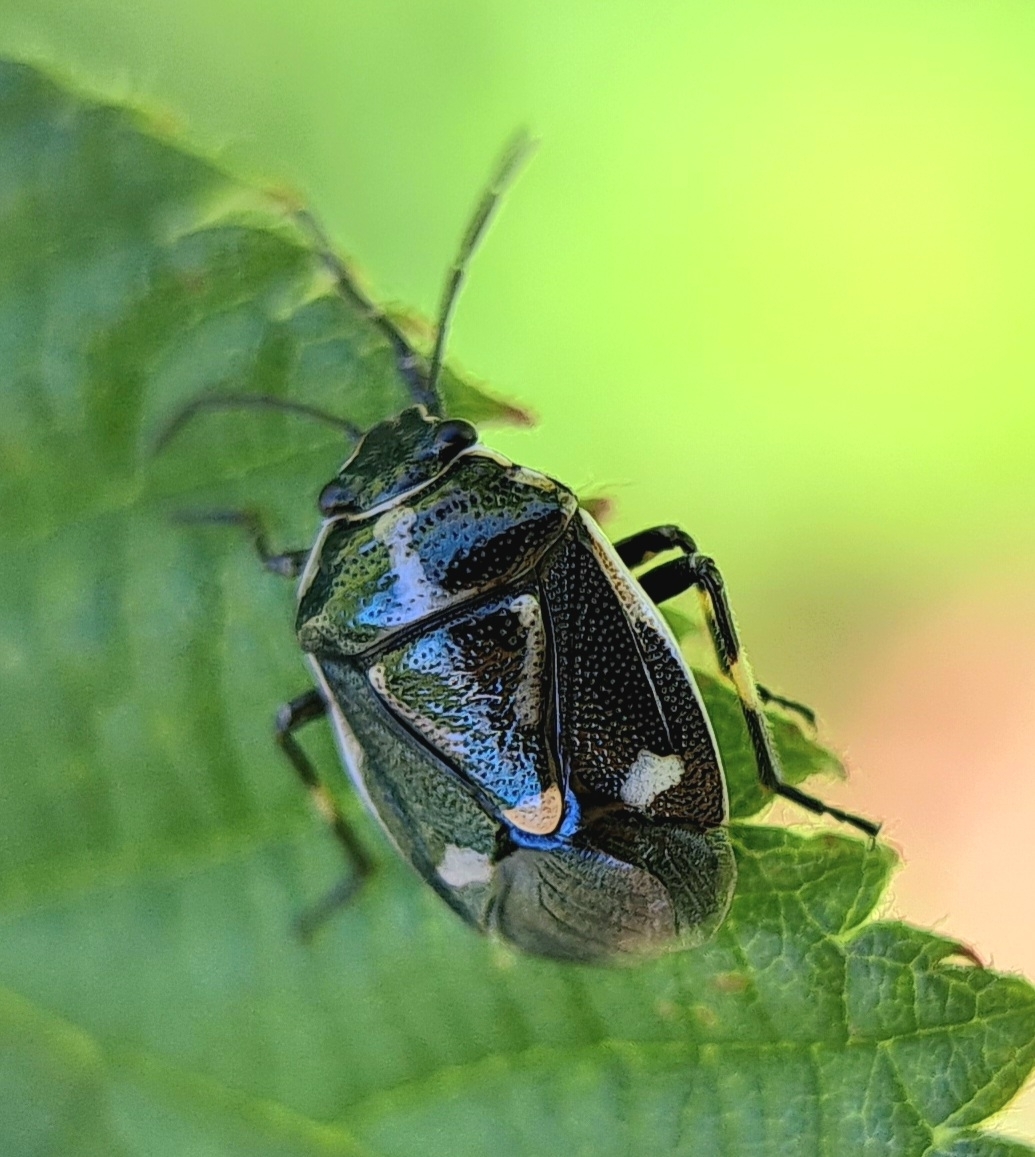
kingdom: Animalia
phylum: Arthropoda
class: Insecta
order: Hemiptera
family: Pentatomidae
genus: Eurydema
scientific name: Eurydema oleracea
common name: Cabbage bug
